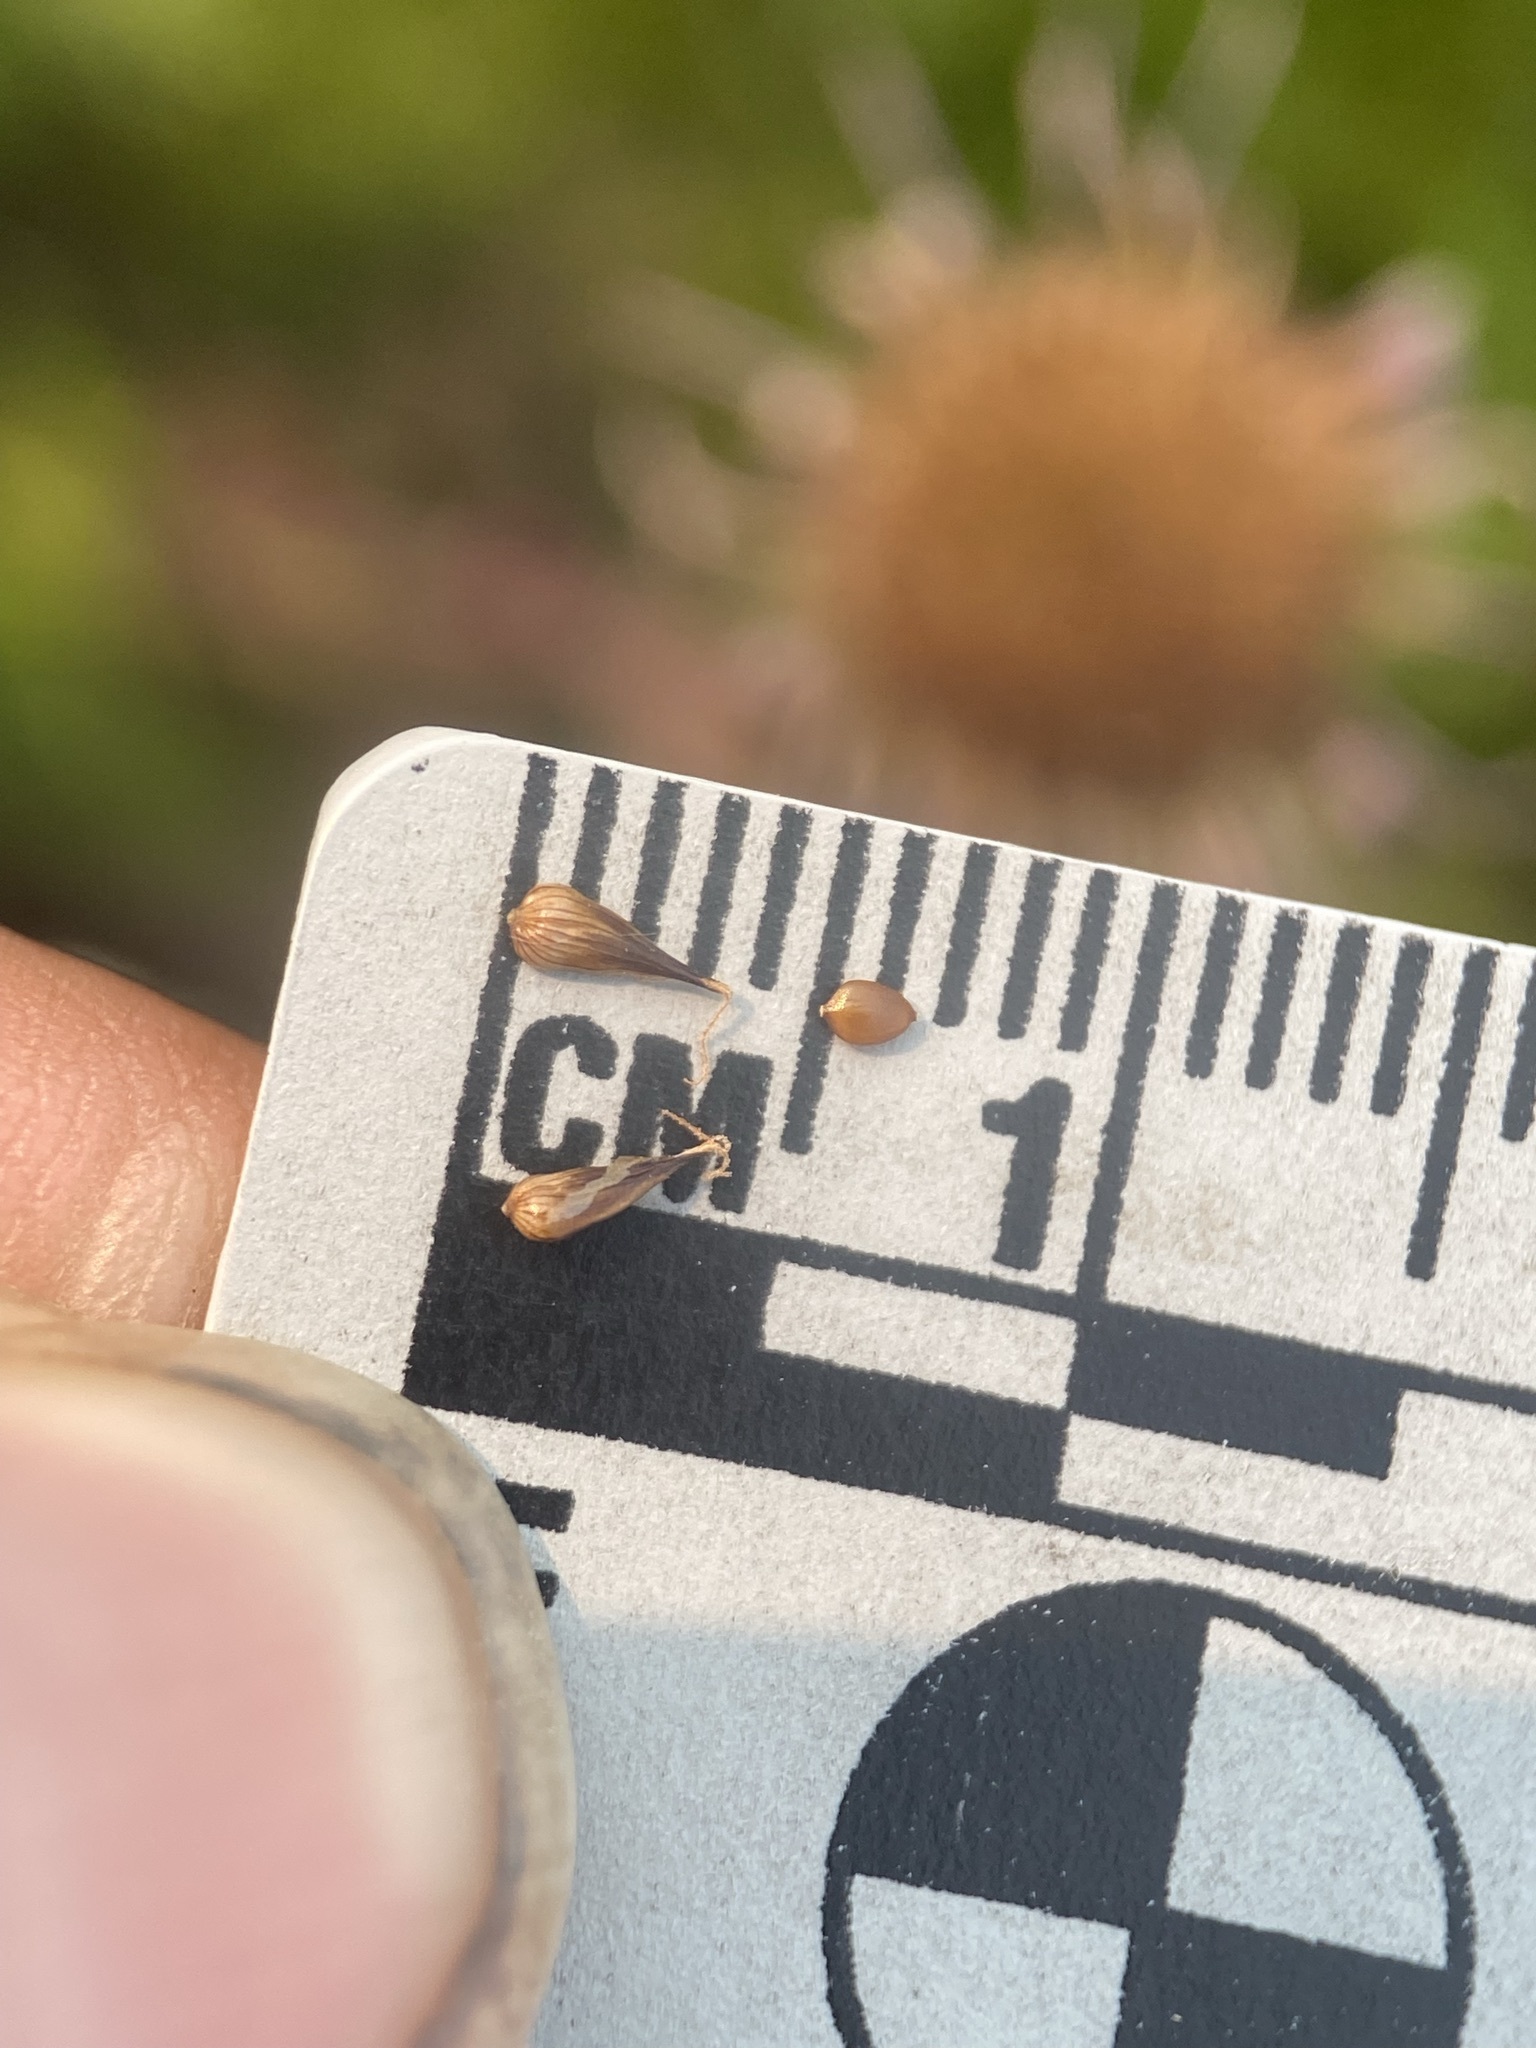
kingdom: Plantae
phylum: Tracheophyta
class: Liliopsida
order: Poales
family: Cyperaceae
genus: Carex
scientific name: Carex neurophora
